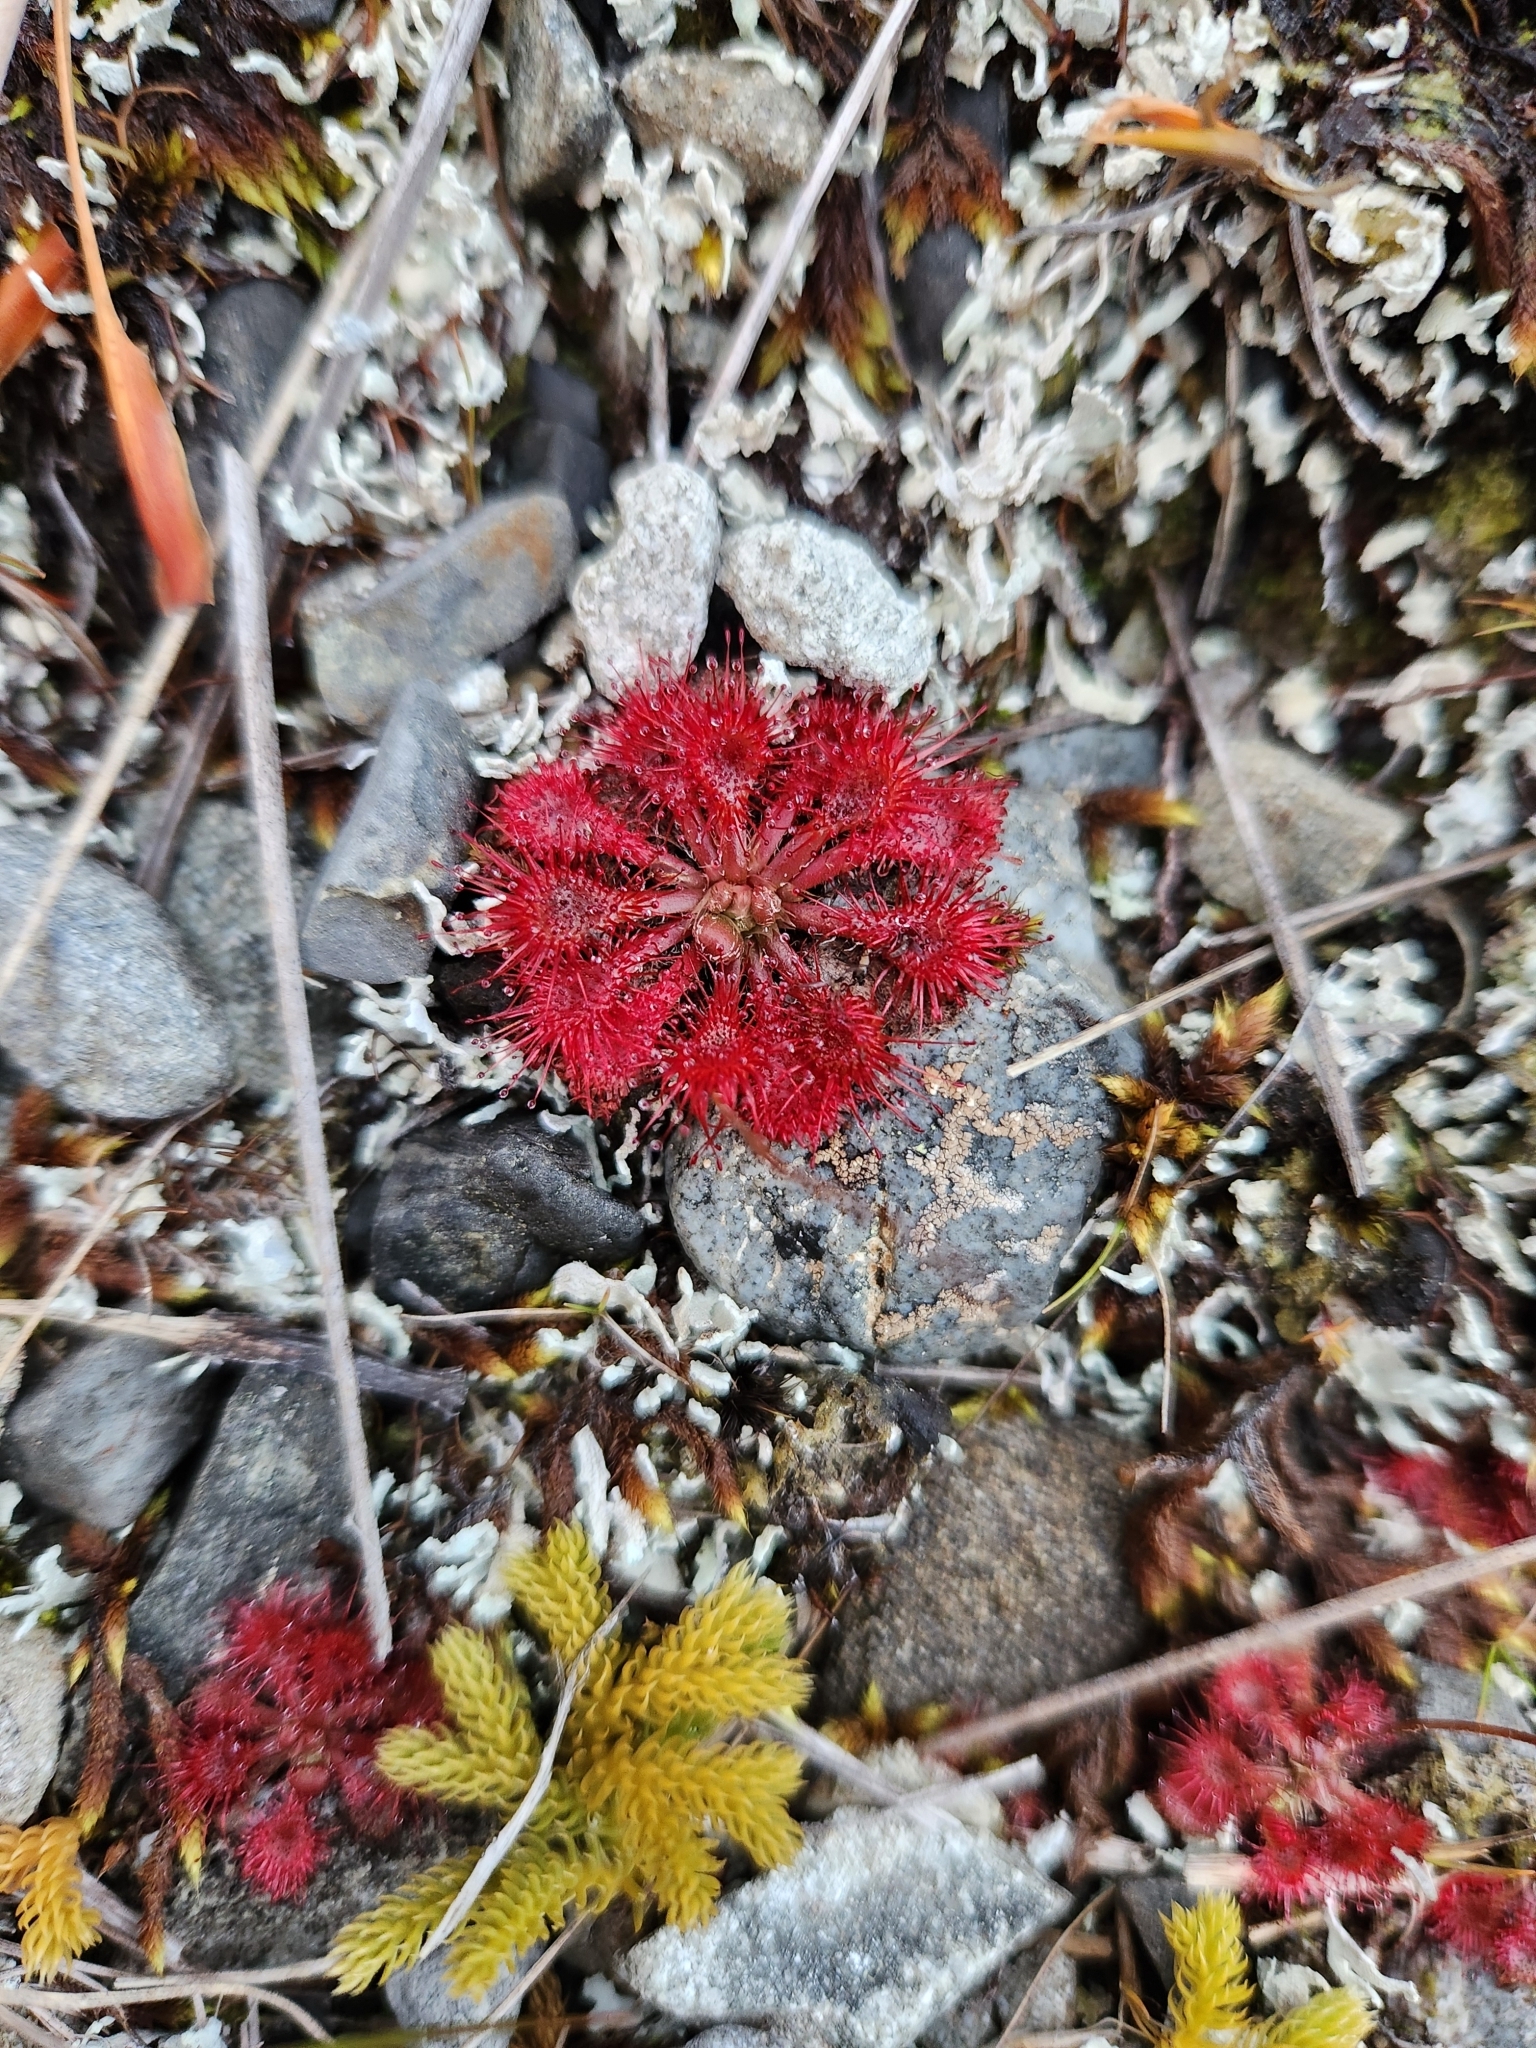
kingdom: Plantae
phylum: Tracheophyta
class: Magnoliopsida
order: Caryophyllales
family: Droseraceae
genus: Drosera
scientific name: Drosera spatulata
